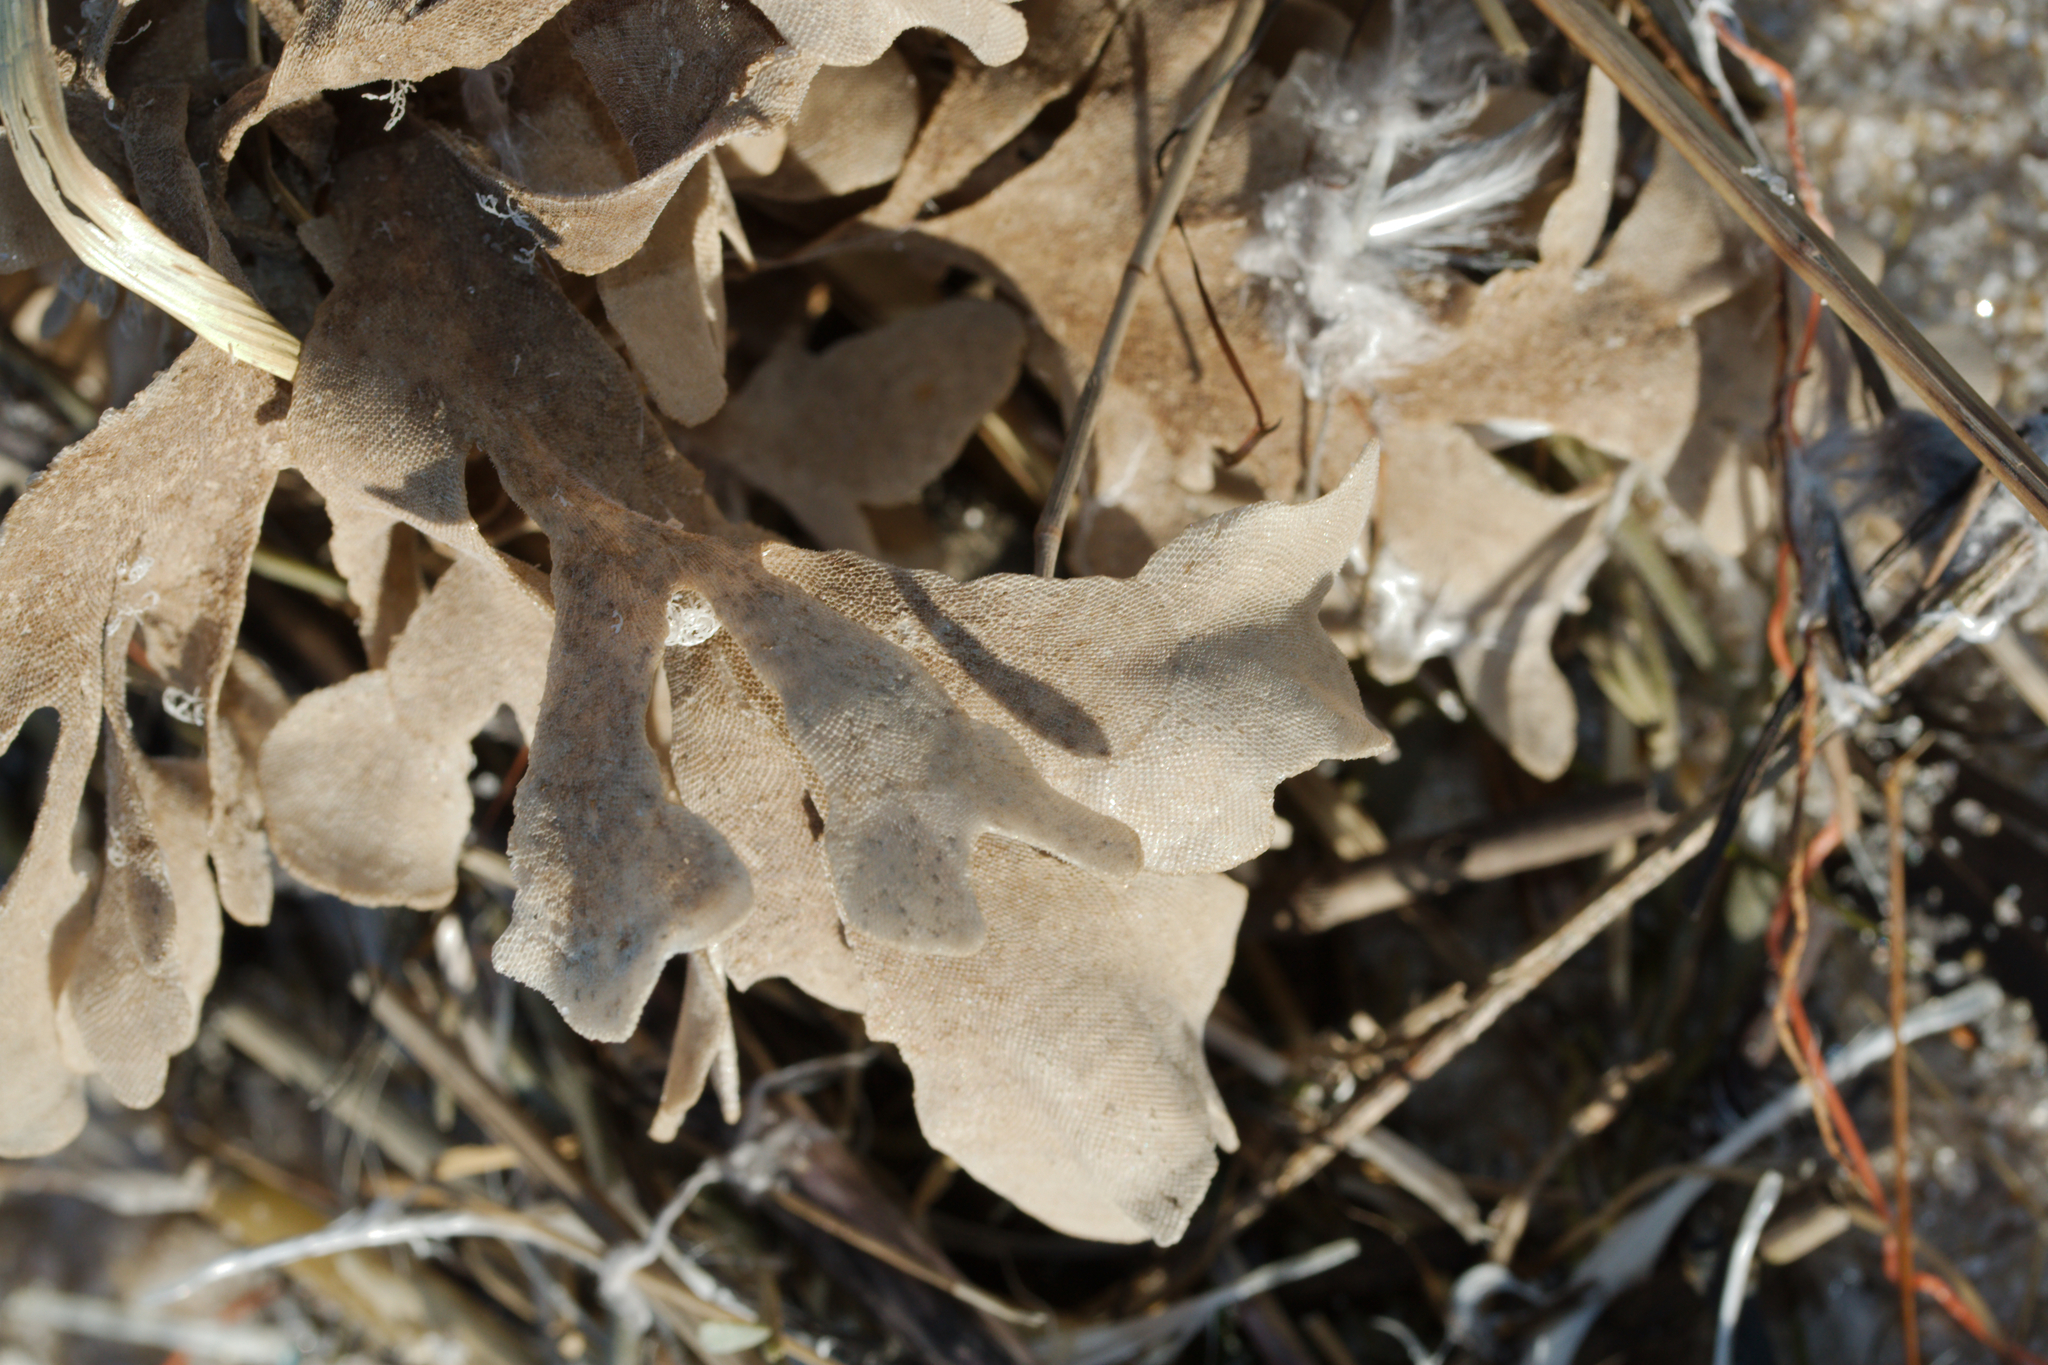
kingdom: Animalia
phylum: Bryozoa
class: Gymnolaemata
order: Cheilostomatida
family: Flustridae
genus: Flustra
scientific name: Flustra foliacea
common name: Hornwrack
